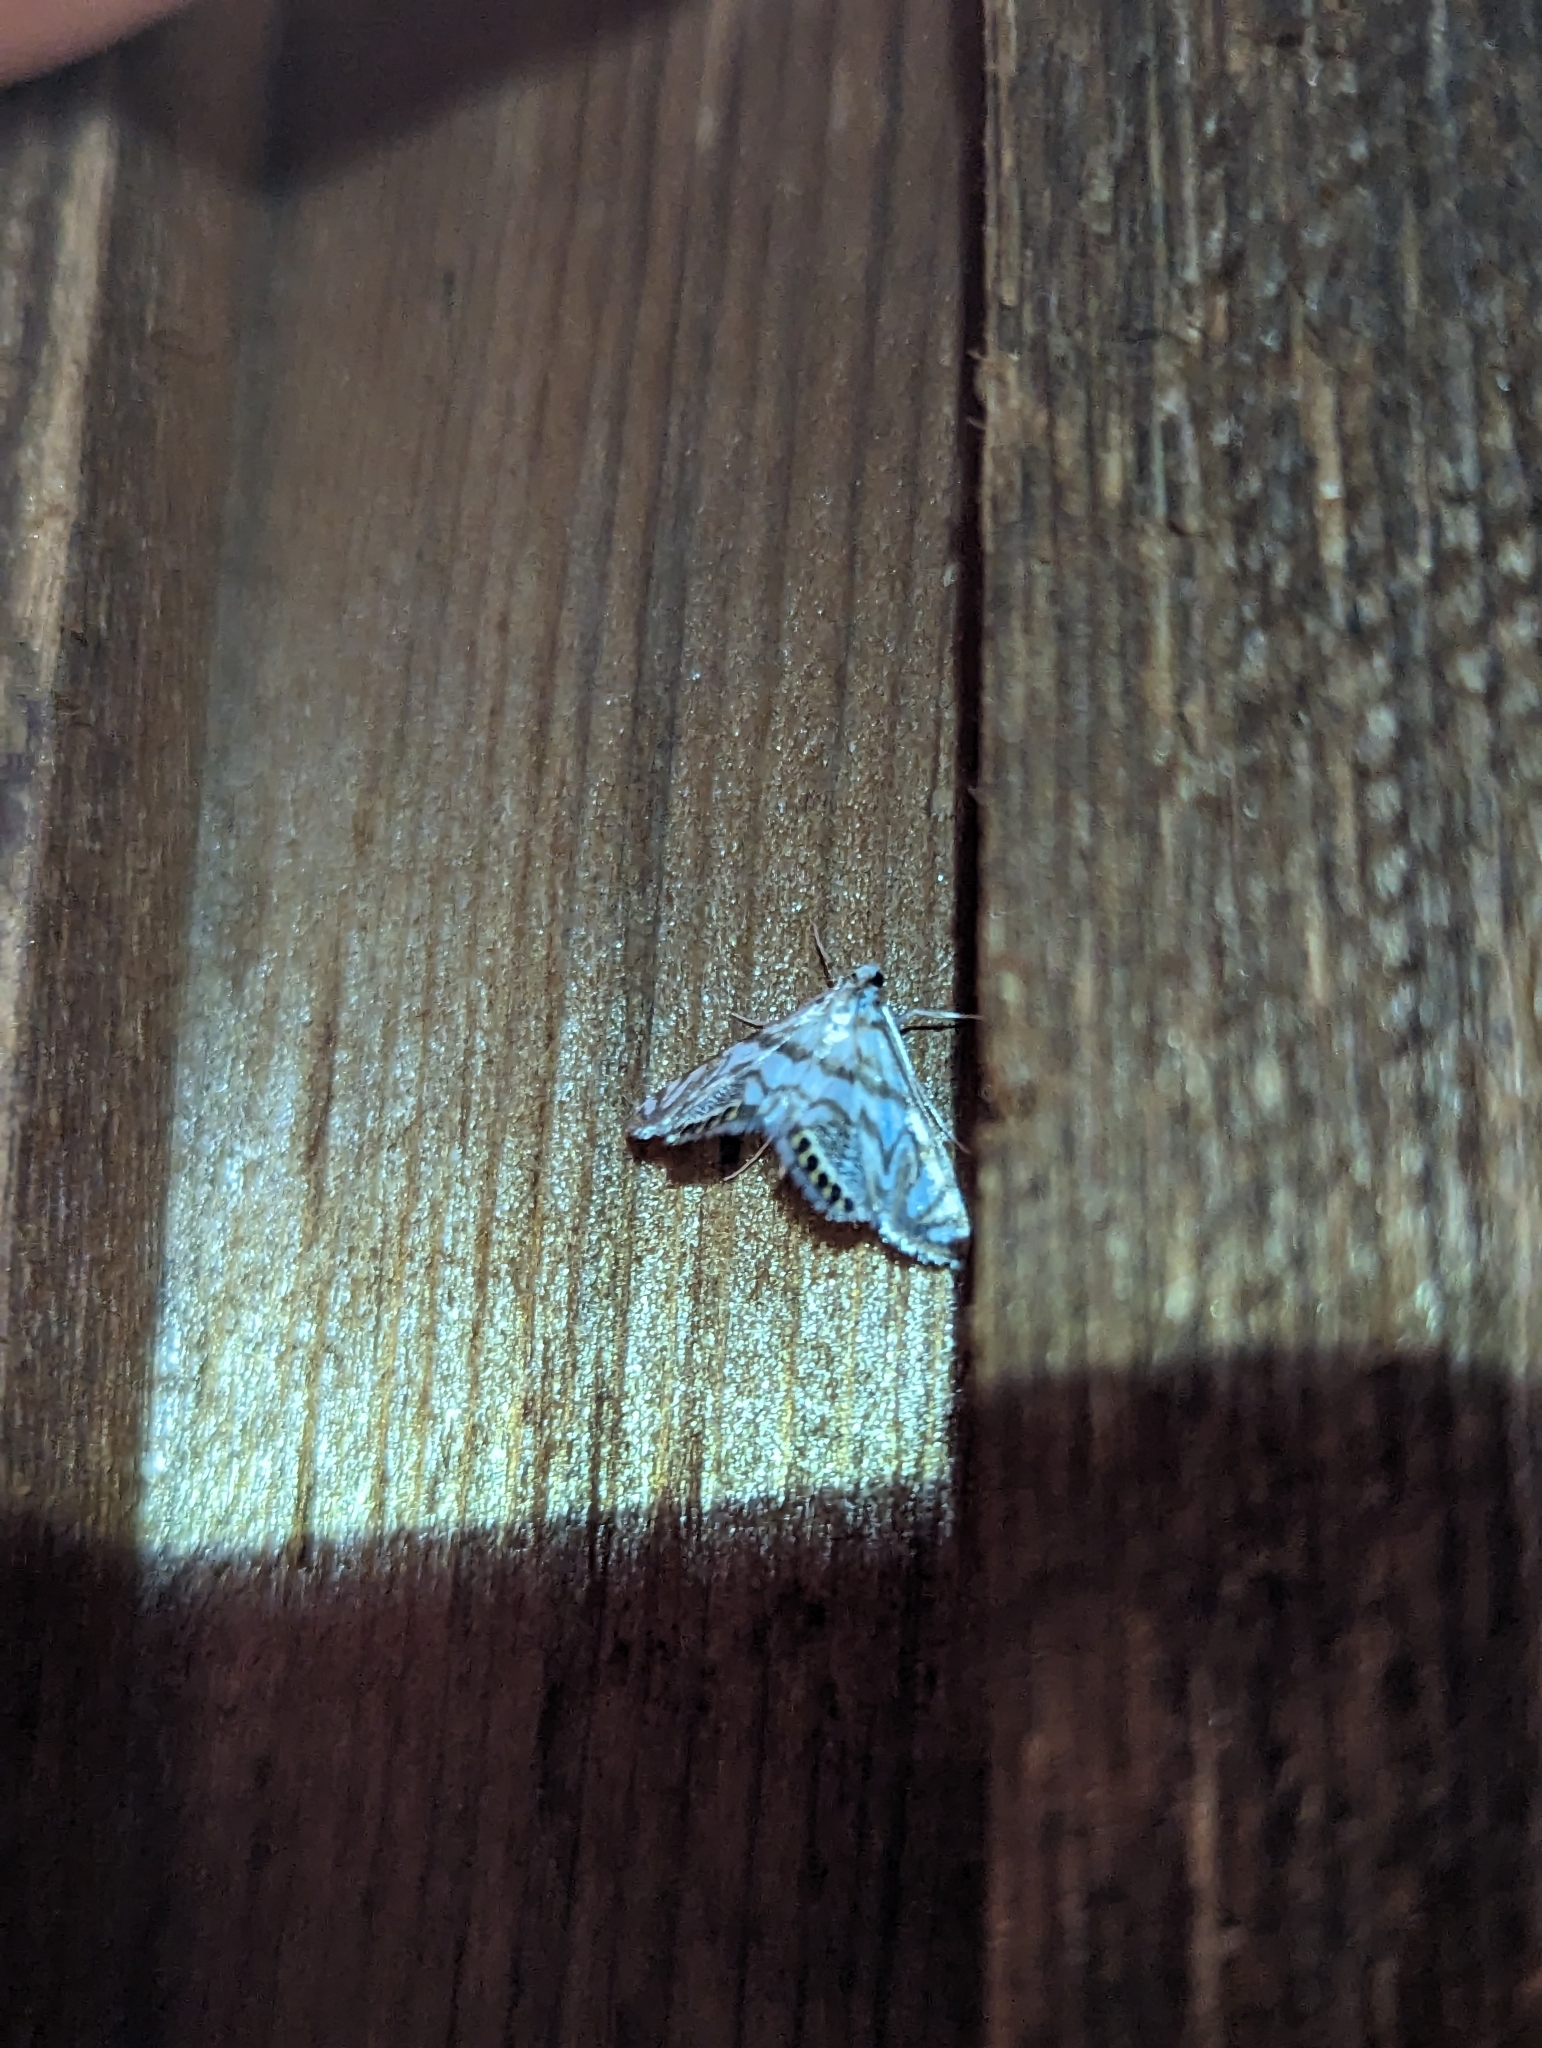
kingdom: Animalia
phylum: Arthropoda
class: Insecta
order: Lepidoptera
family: Crambidae
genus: Neocataclysta
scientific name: Neocataclysta magnificalis
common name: Scrollwork pyralid moth
